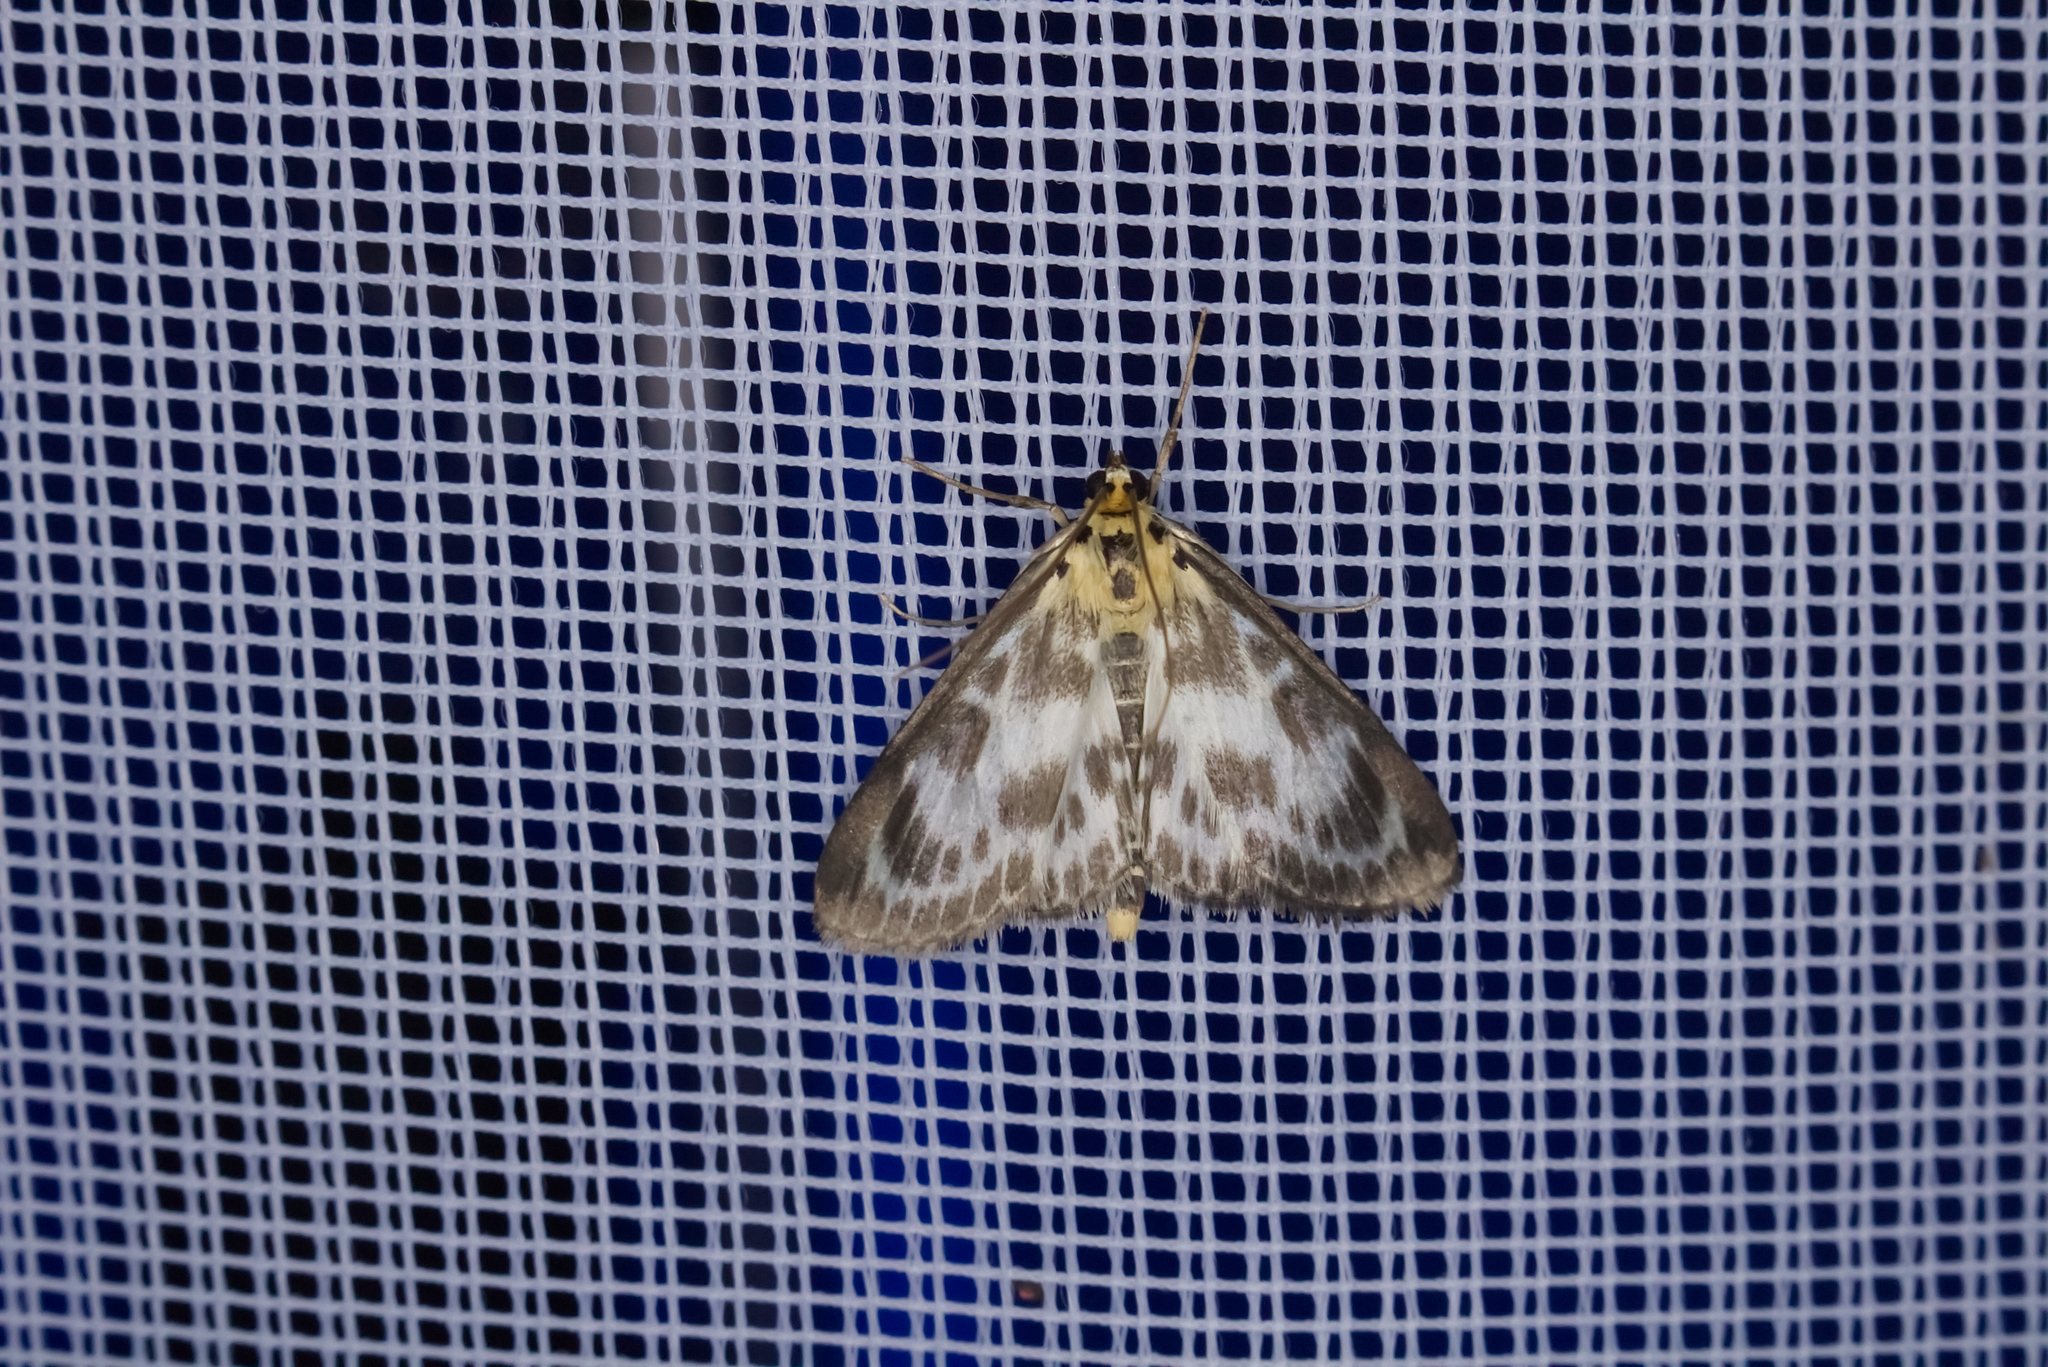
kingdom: Animalia
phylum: Arthropoda
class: Insecta
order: Lepidoptera
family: Crambidae
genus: Anania
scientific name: Anania hortulata
